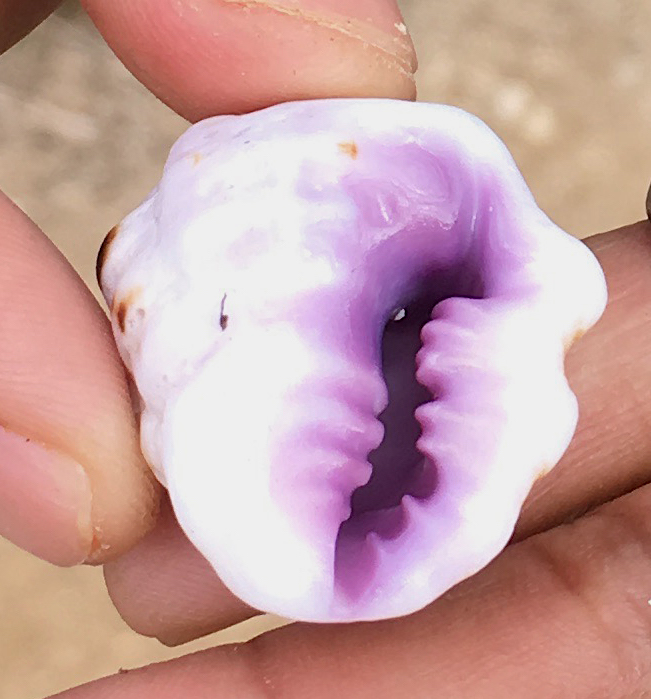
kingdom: Animalia
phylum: Mollusca
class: Gastropoda
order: Neogastropoda
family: Muricidae
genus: Drupa
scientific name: Drupa morum
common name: Purple drupe
